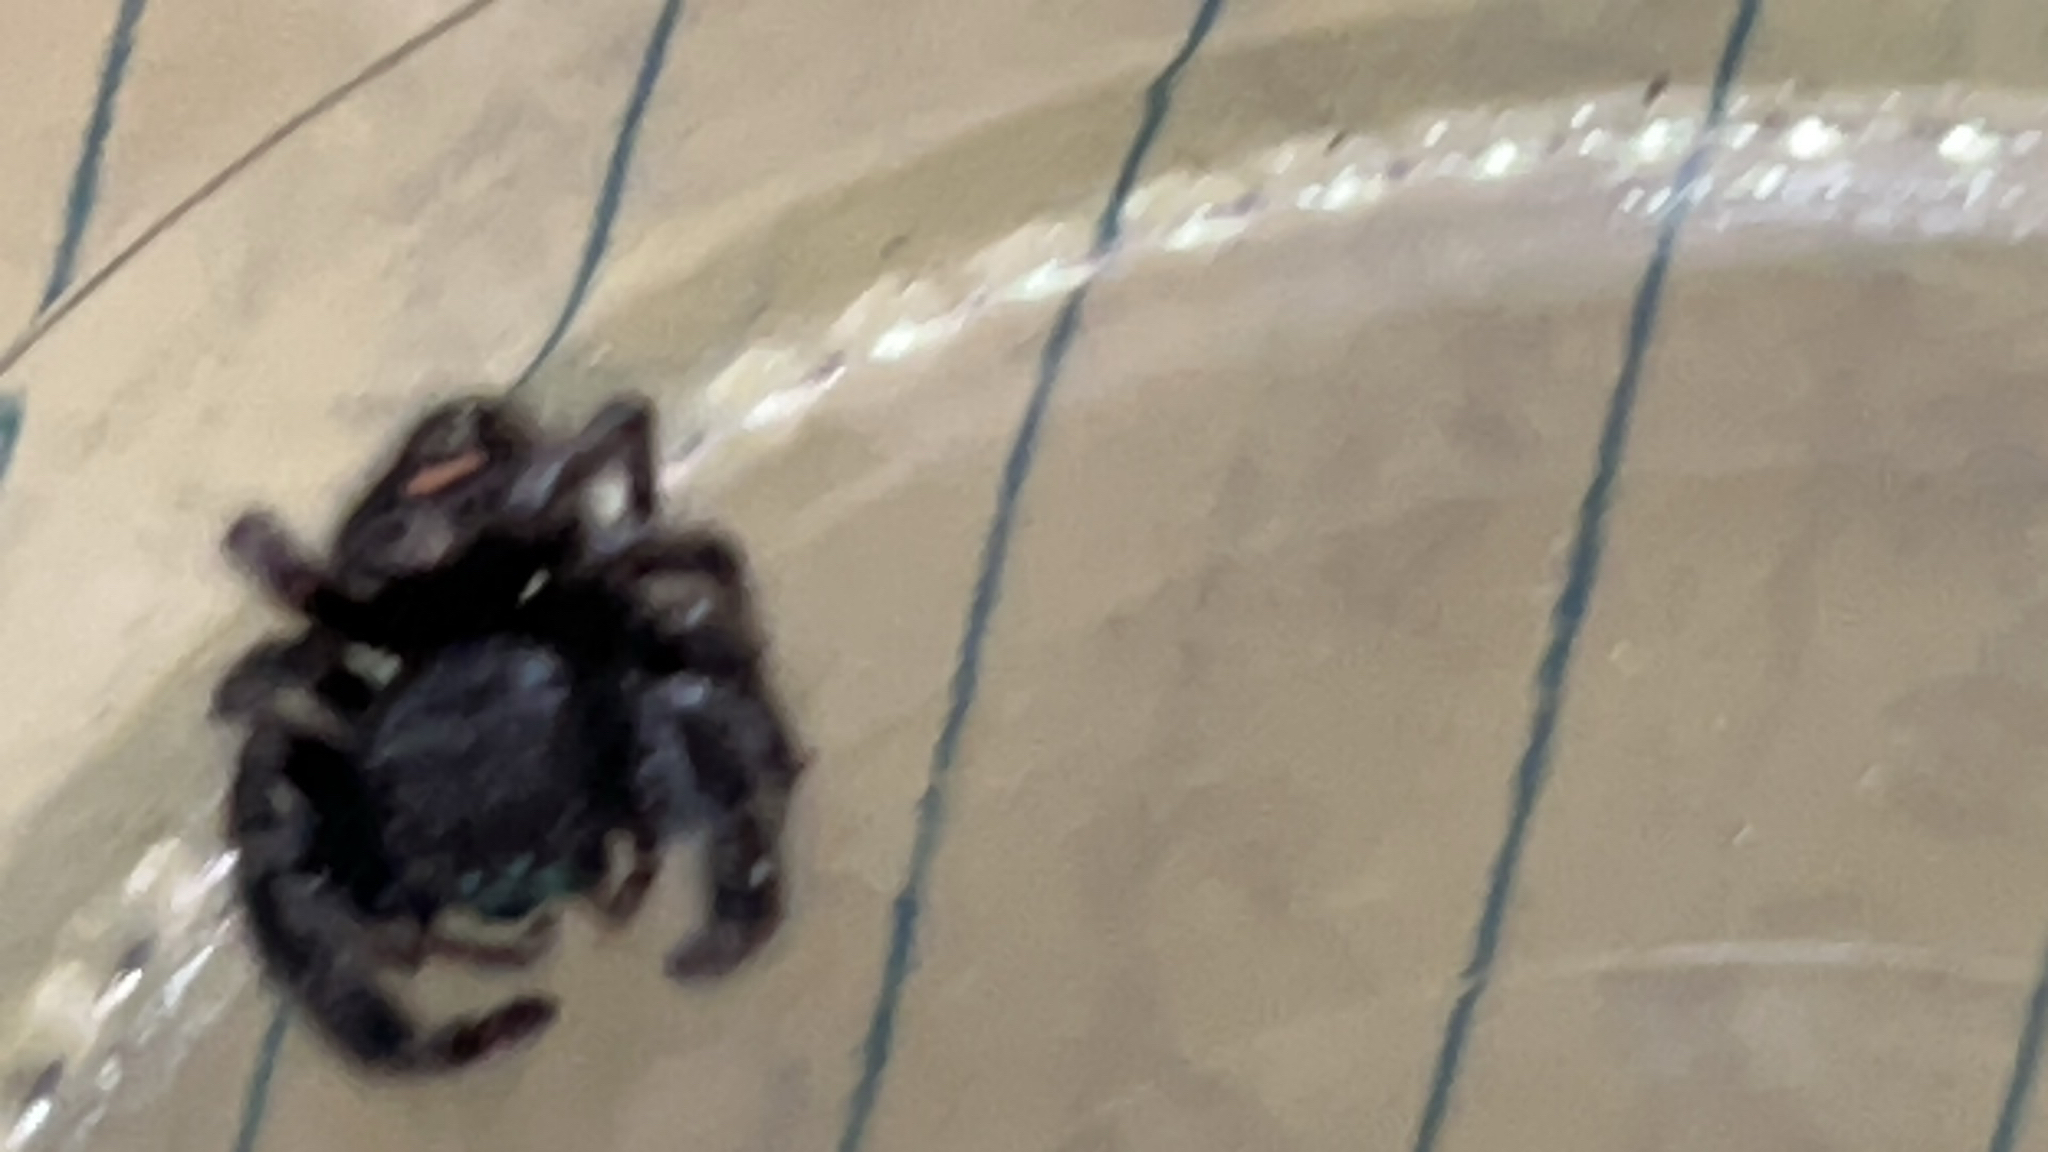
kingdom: Animalia
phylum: Arthropoda
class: Arachnida
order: Araneae
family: Salticidae
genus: Phidippus
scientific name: Phidippus audax
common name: Bold jumper
